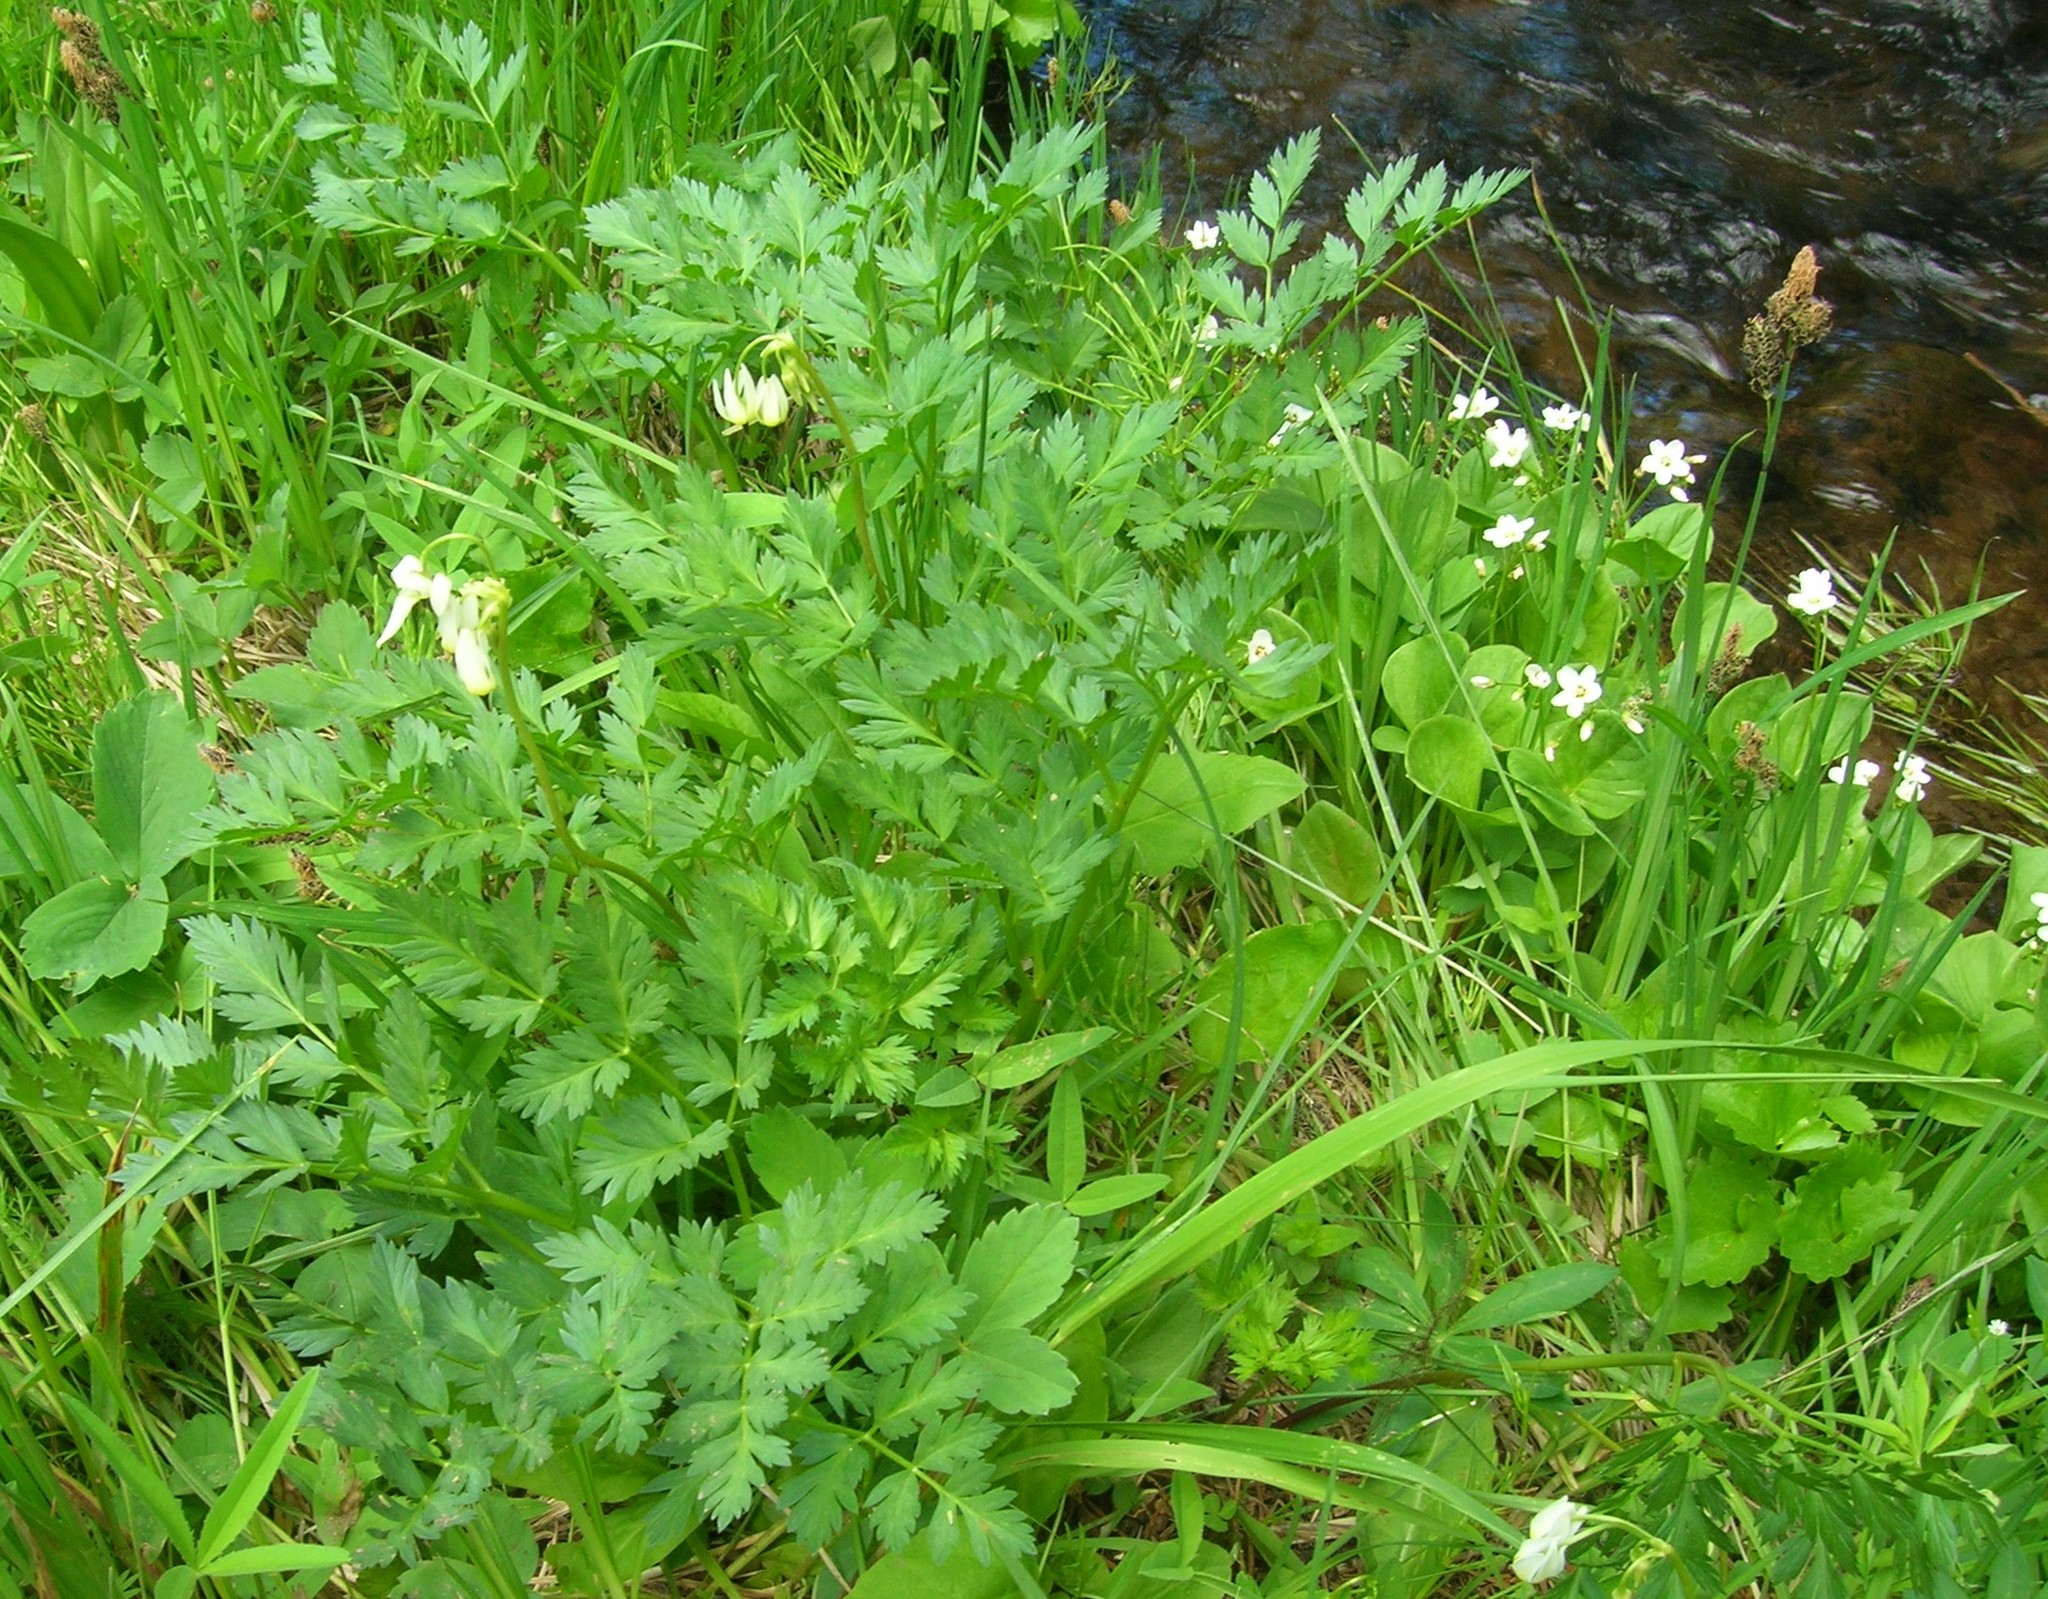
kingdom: Plantae
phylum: Tracheophyta
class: Magnoliopsida
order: Ericales
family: Primulaceae
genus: Dodecatheon
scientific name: Dodecatheon dentatum
